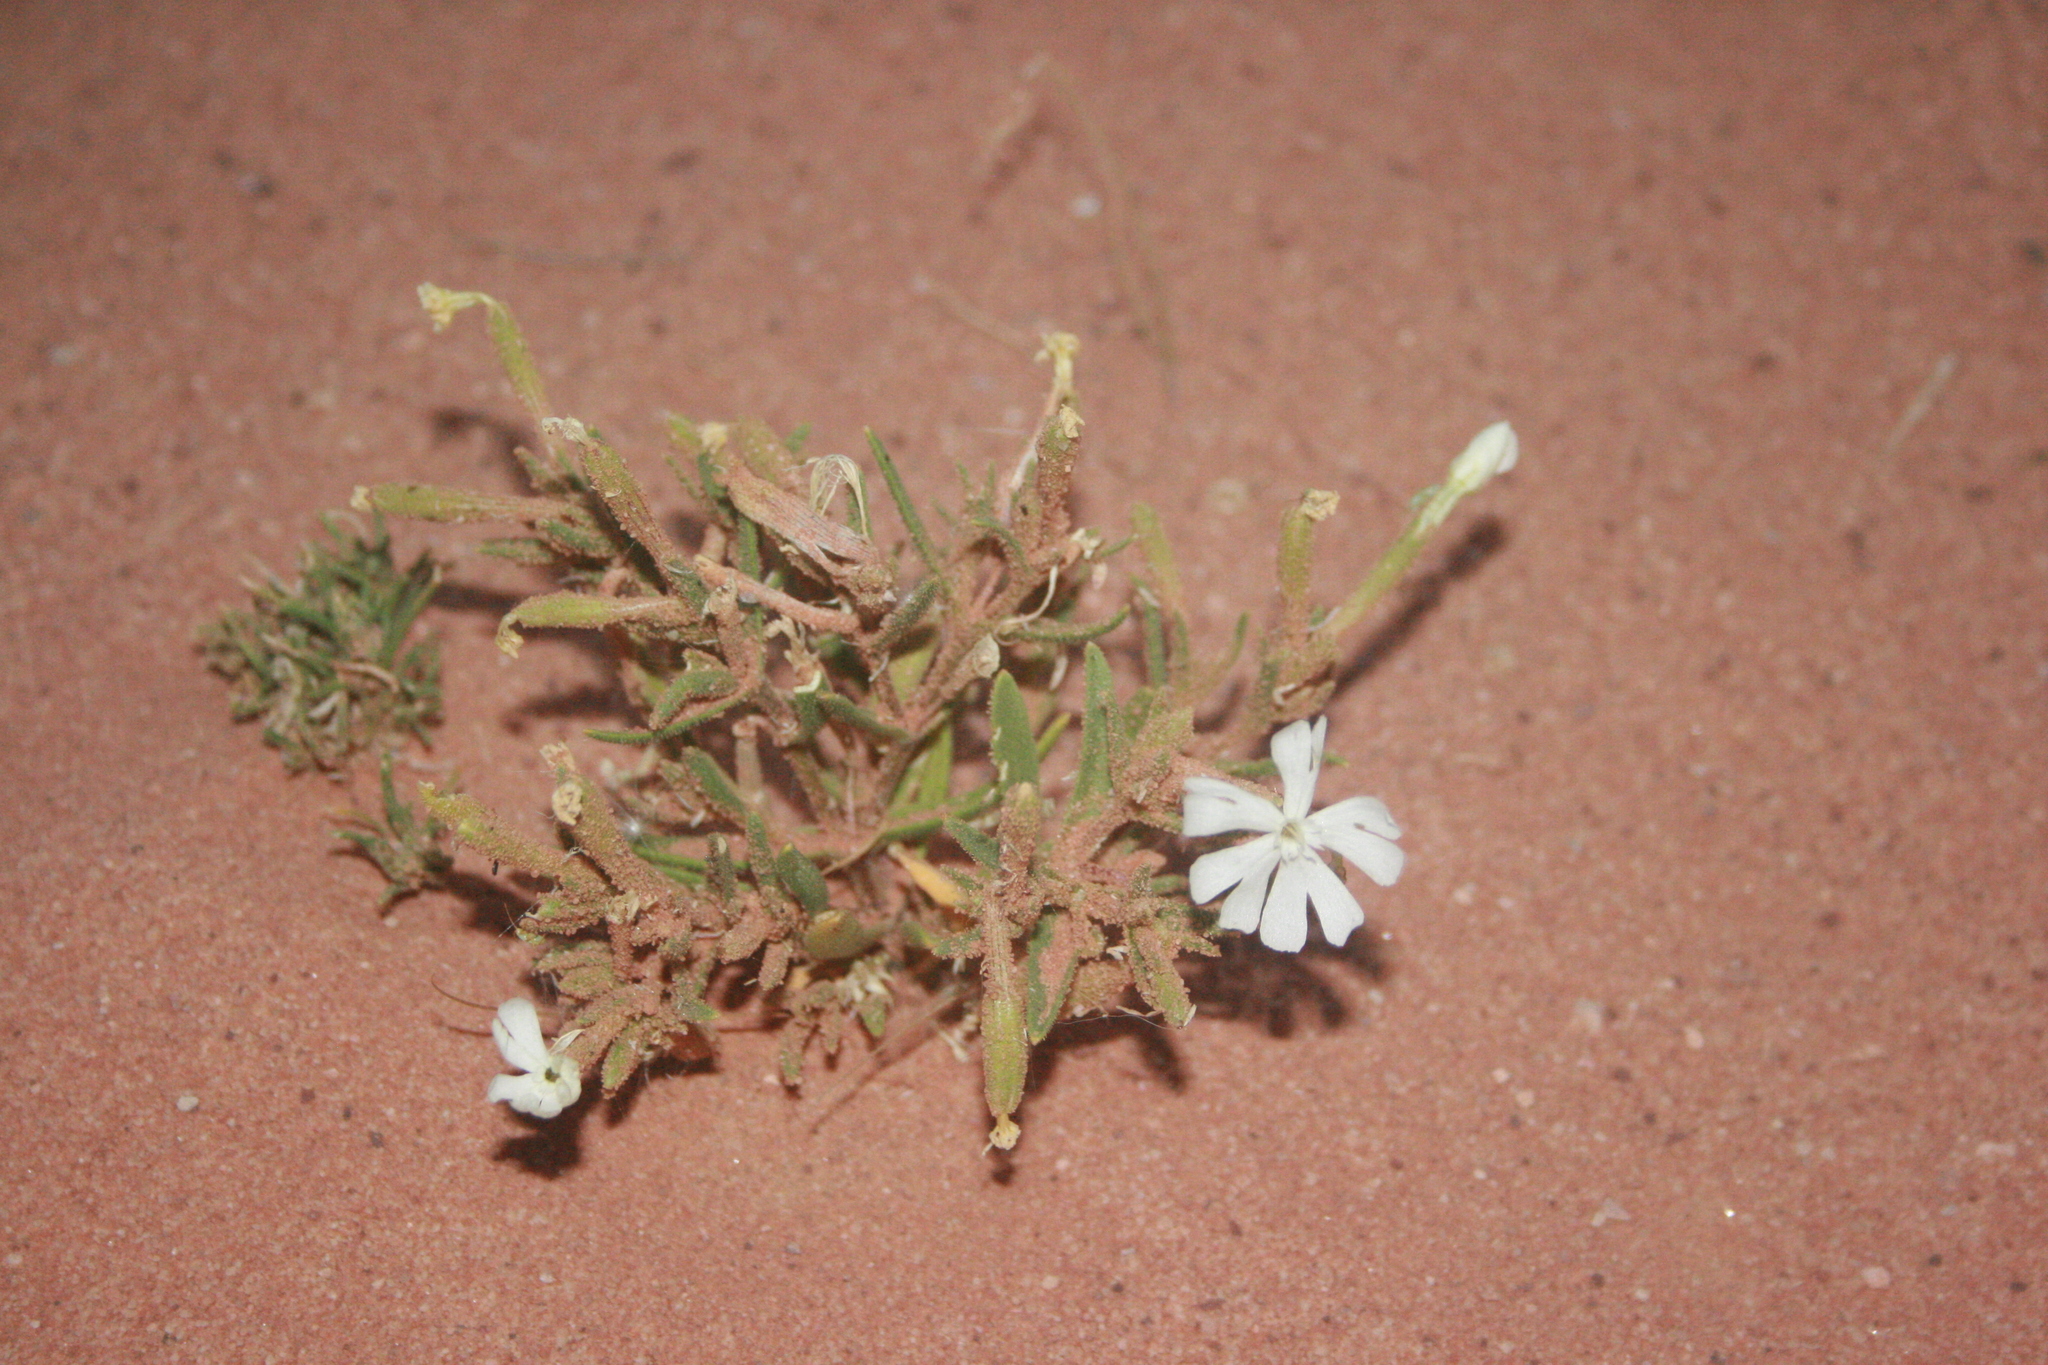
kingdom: Plantae
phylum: Tracheophyta
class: Magnoliopsida
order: Caryophyllales
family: Caryophyllaceae
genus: Silene
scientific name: Silene villosa
